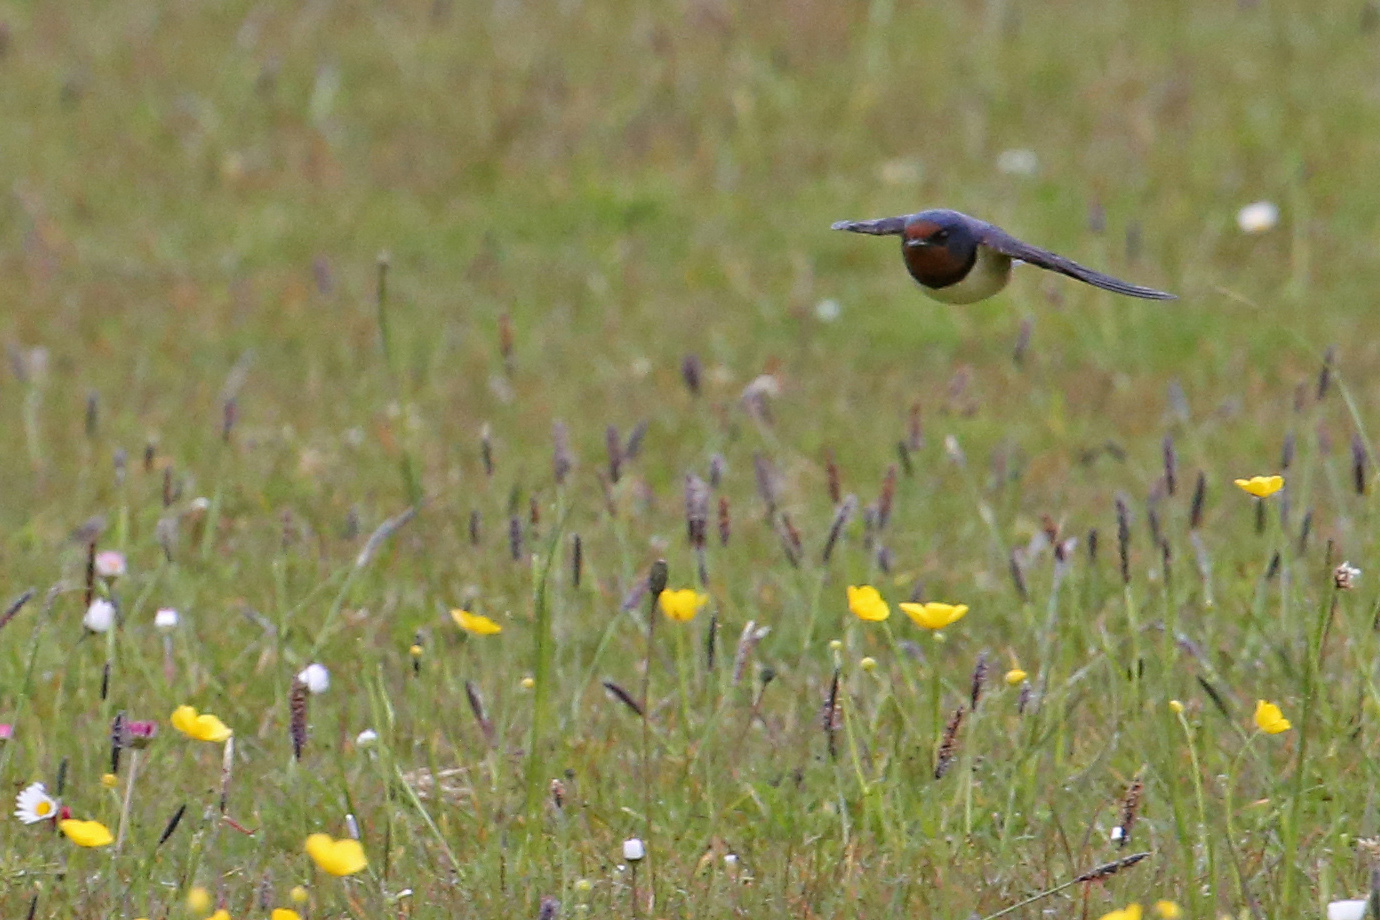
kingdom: Animalia
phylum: Chordata
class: Aves
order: Passeriformes
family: Hirundinidae
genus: Hirundo
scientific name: Hirundo rustica
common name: Barn swallow
